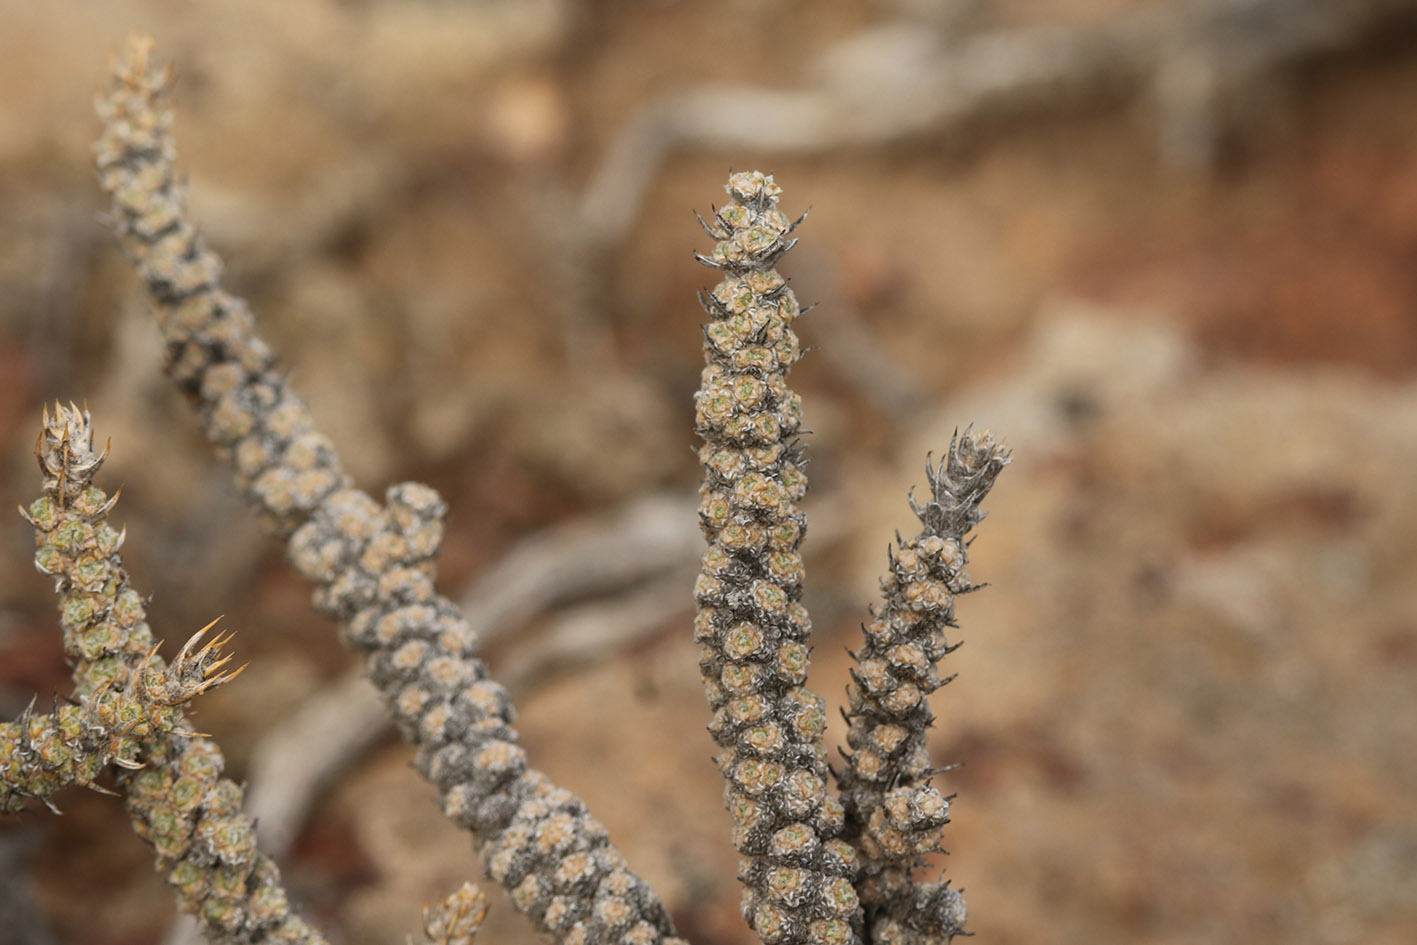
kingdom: Plantae
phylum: Tracheophyta
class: Magnoliopsida
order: Asterales
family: Asteraceae
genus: Nassauvia
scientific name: Nassauvia glomerulosa
